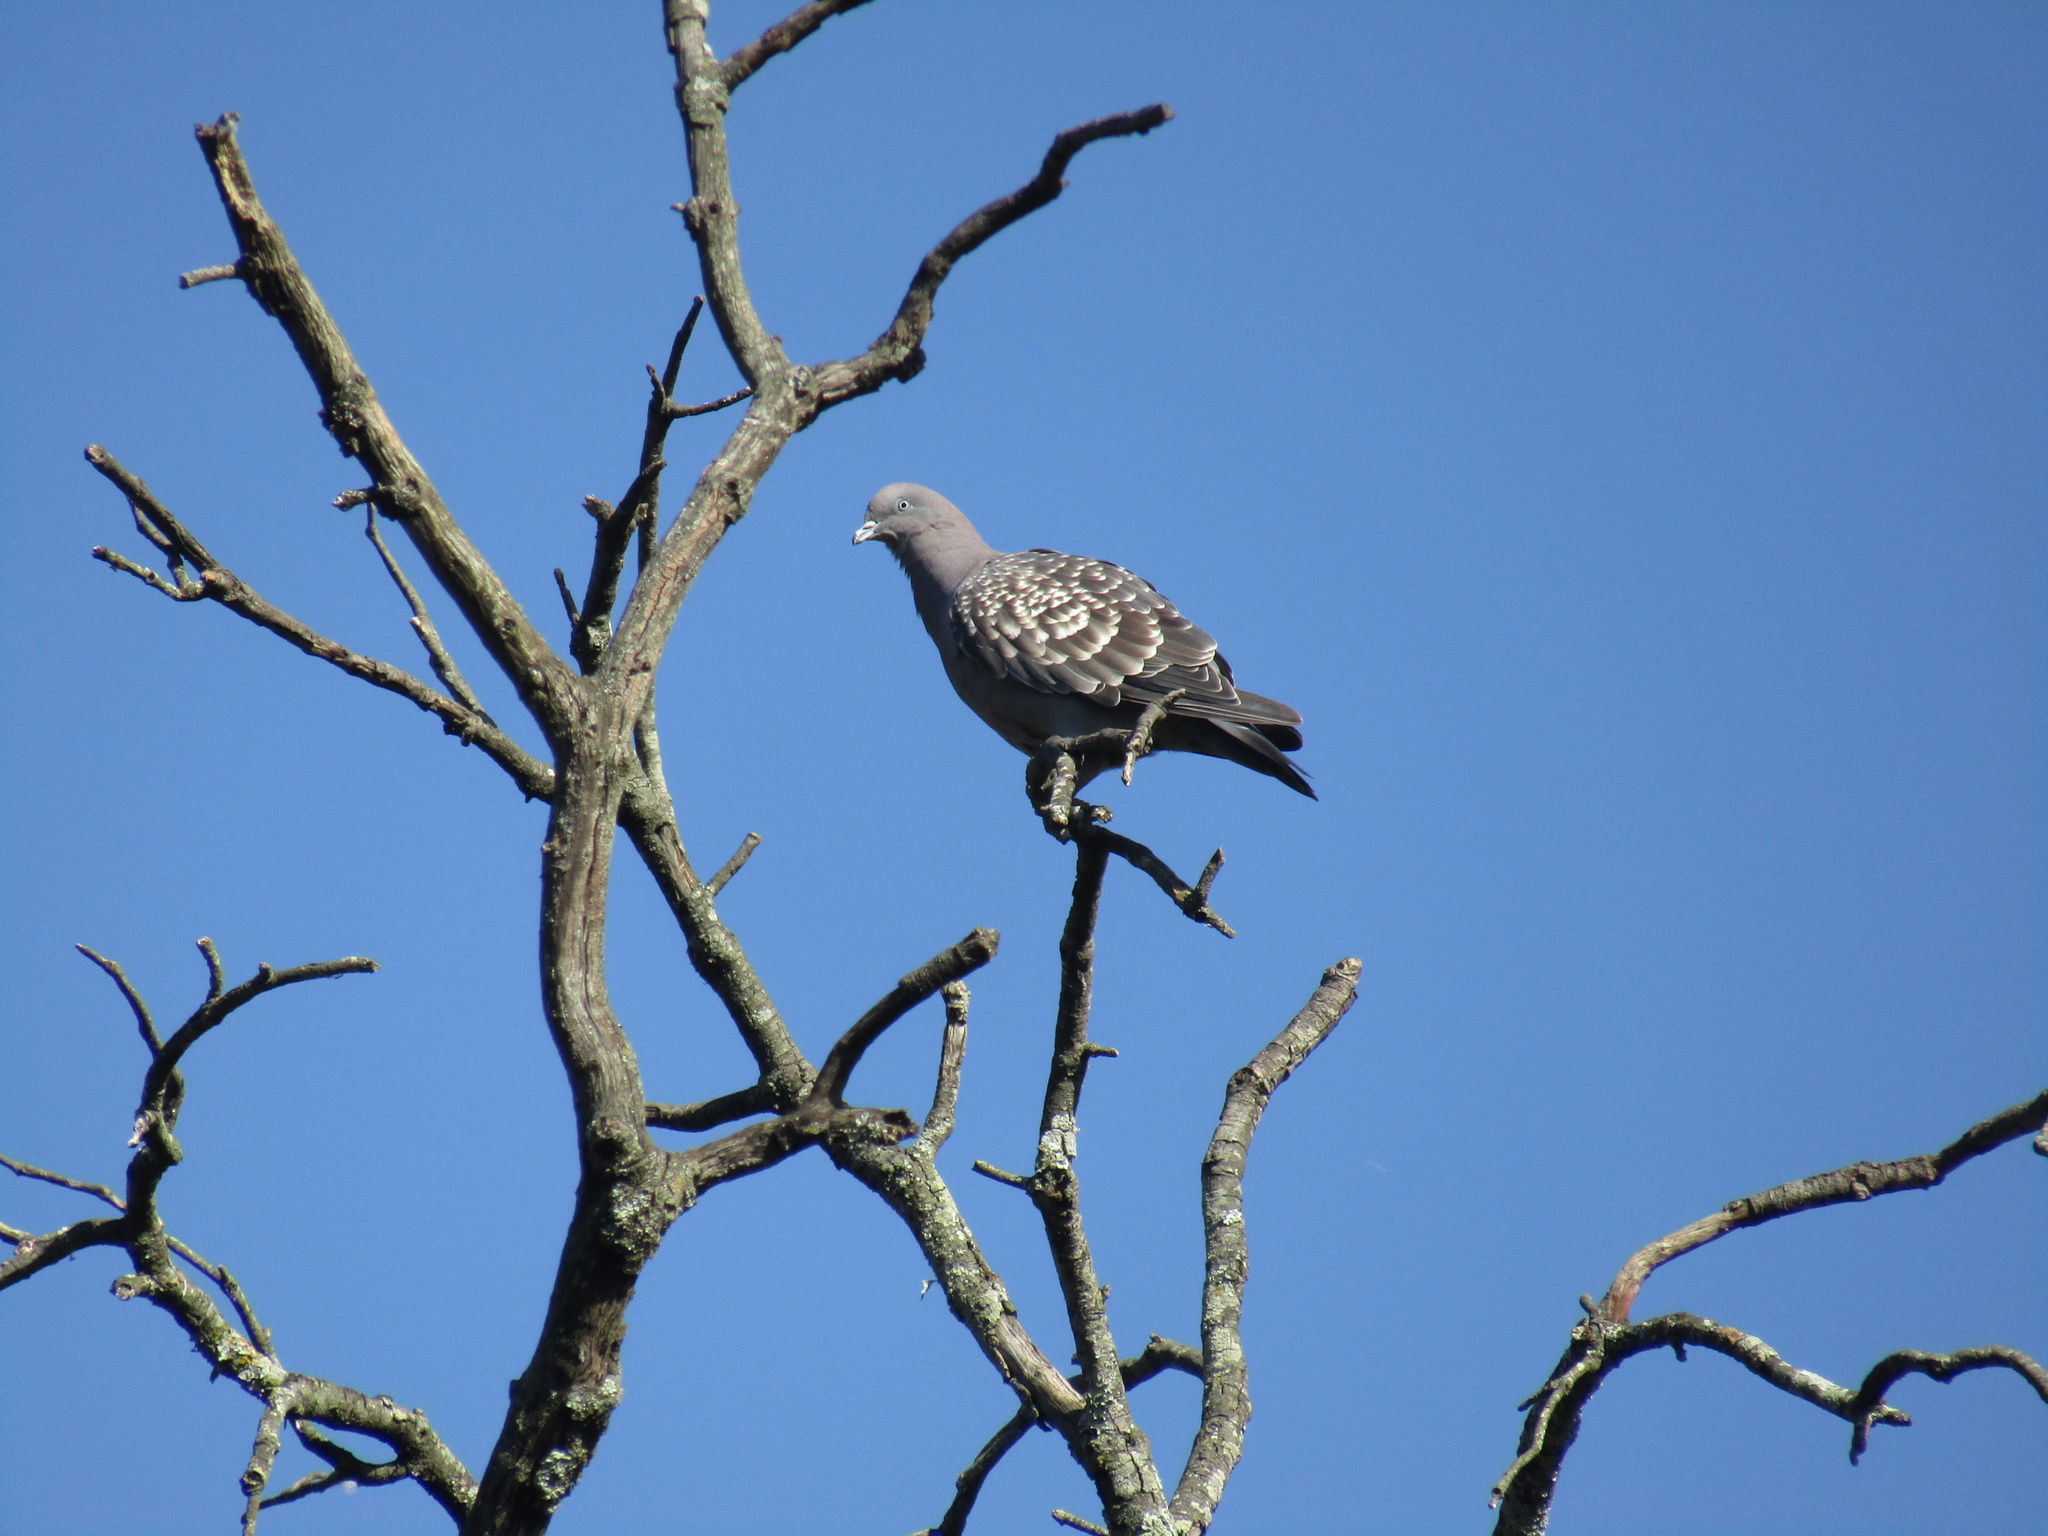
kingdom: Animalia
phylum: Chordata
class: Aves
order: Columbiformes
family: Columbidae
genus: Patagioenas
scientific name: Patagioenas maculosa
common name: Spot-winged pigeon
